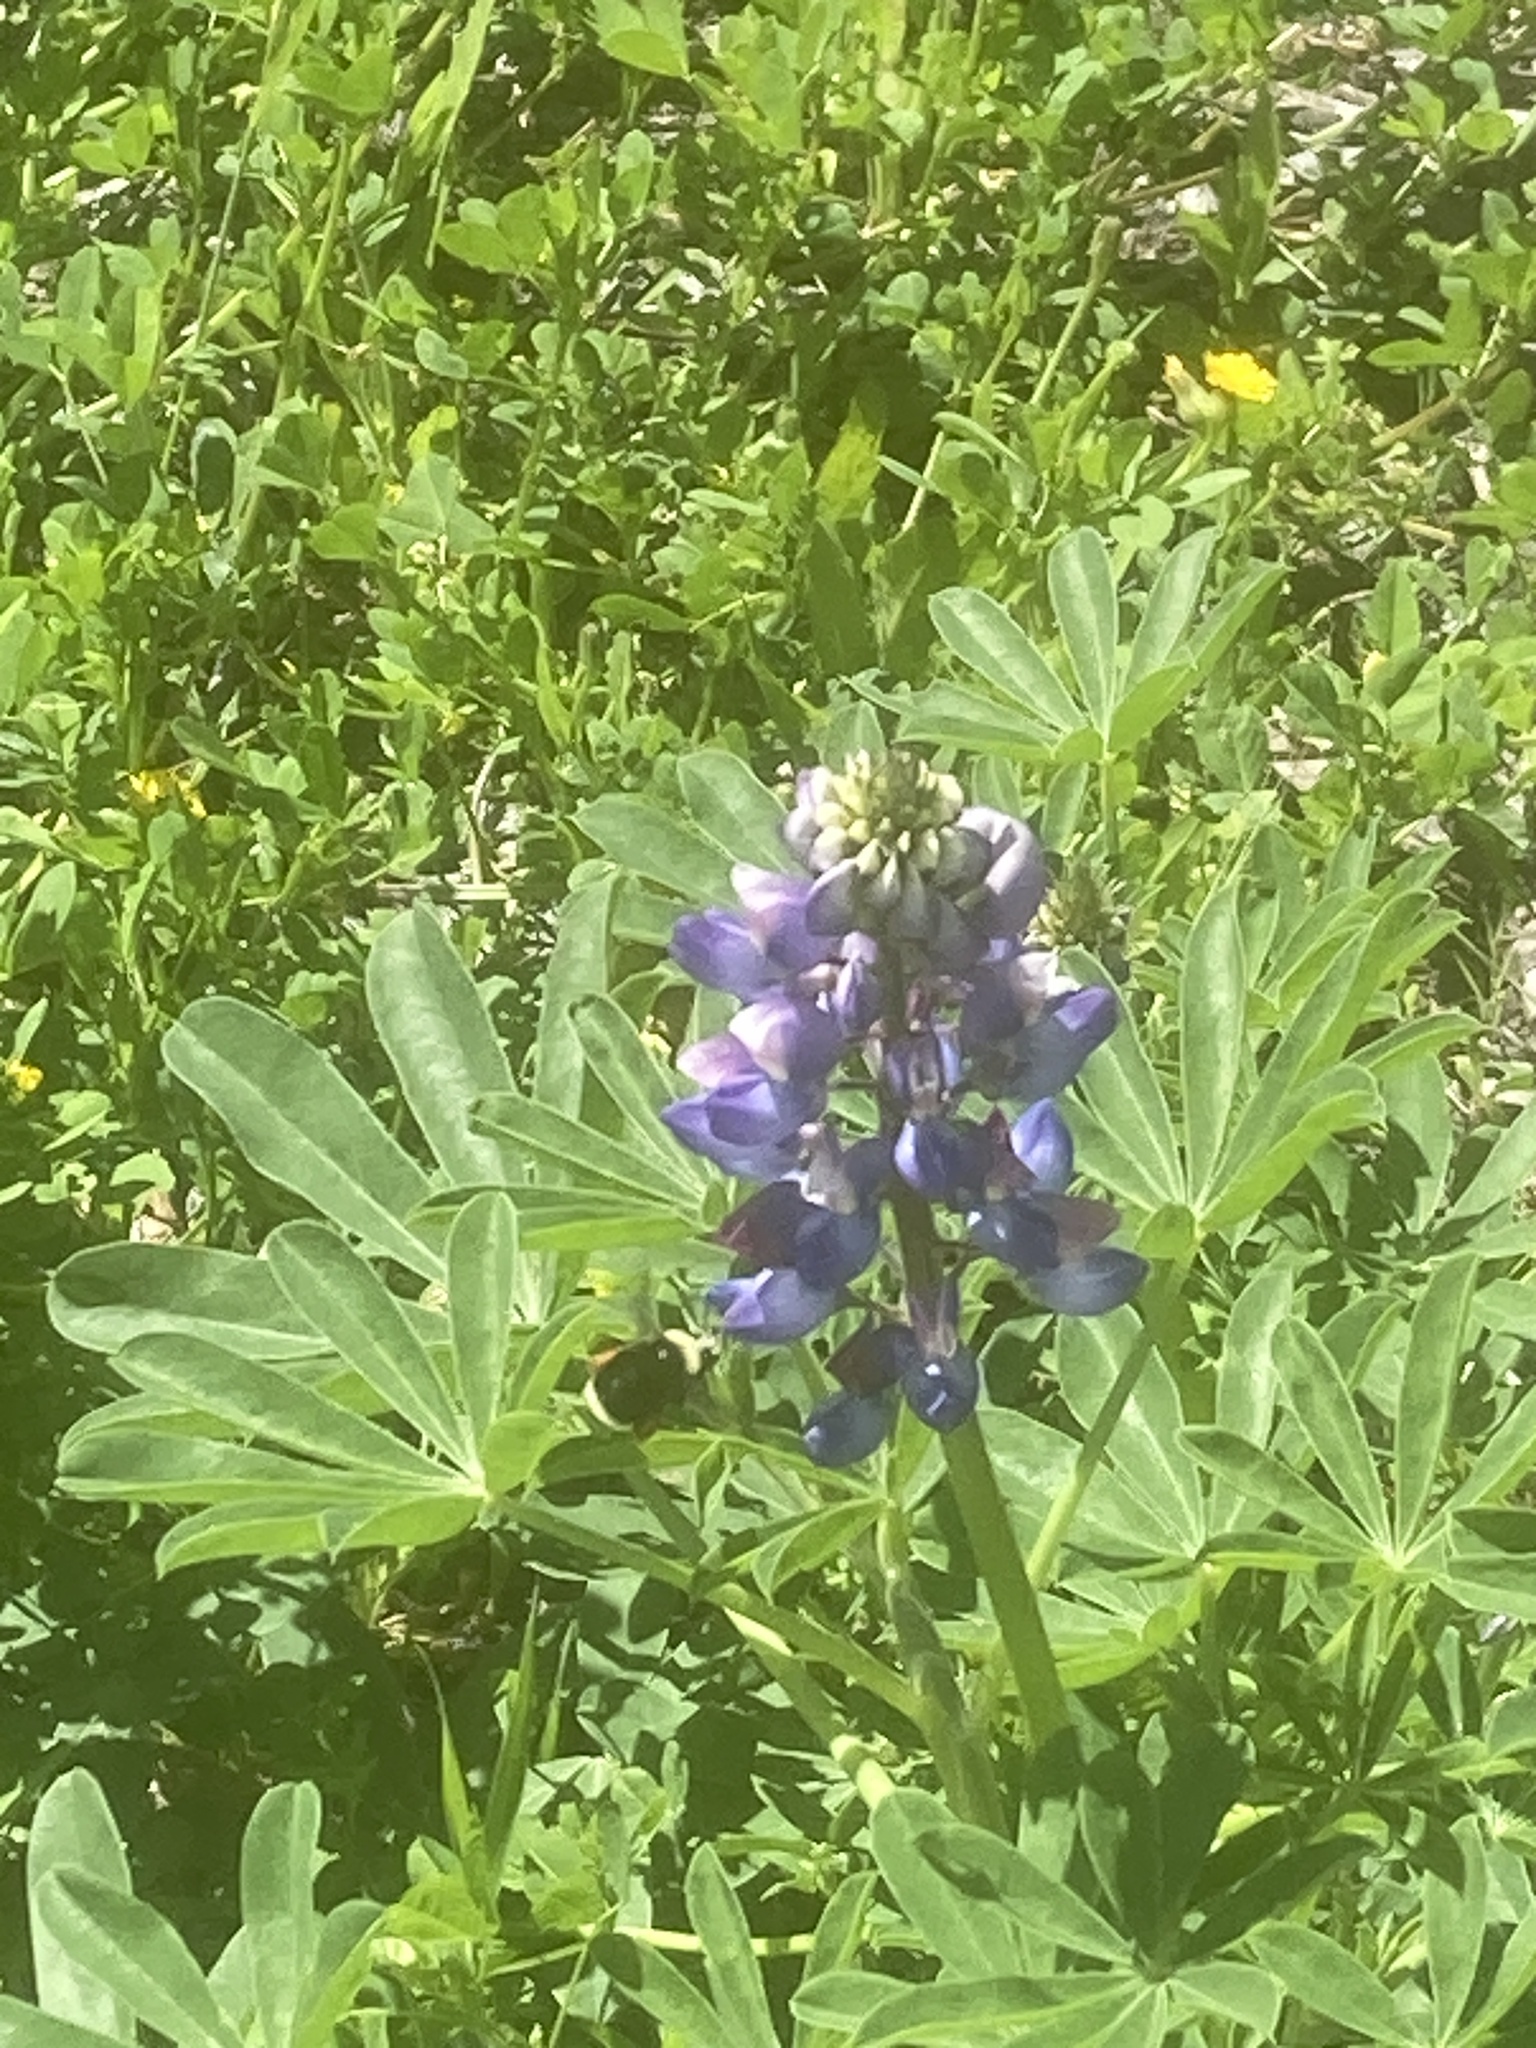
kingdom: Animalia
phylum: Arthropoda
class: Insecta
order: Hymenoptera
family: Apidae
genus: Bombus
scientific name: Bombus vosnesenskii
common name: Vosnesensky bumble bee
